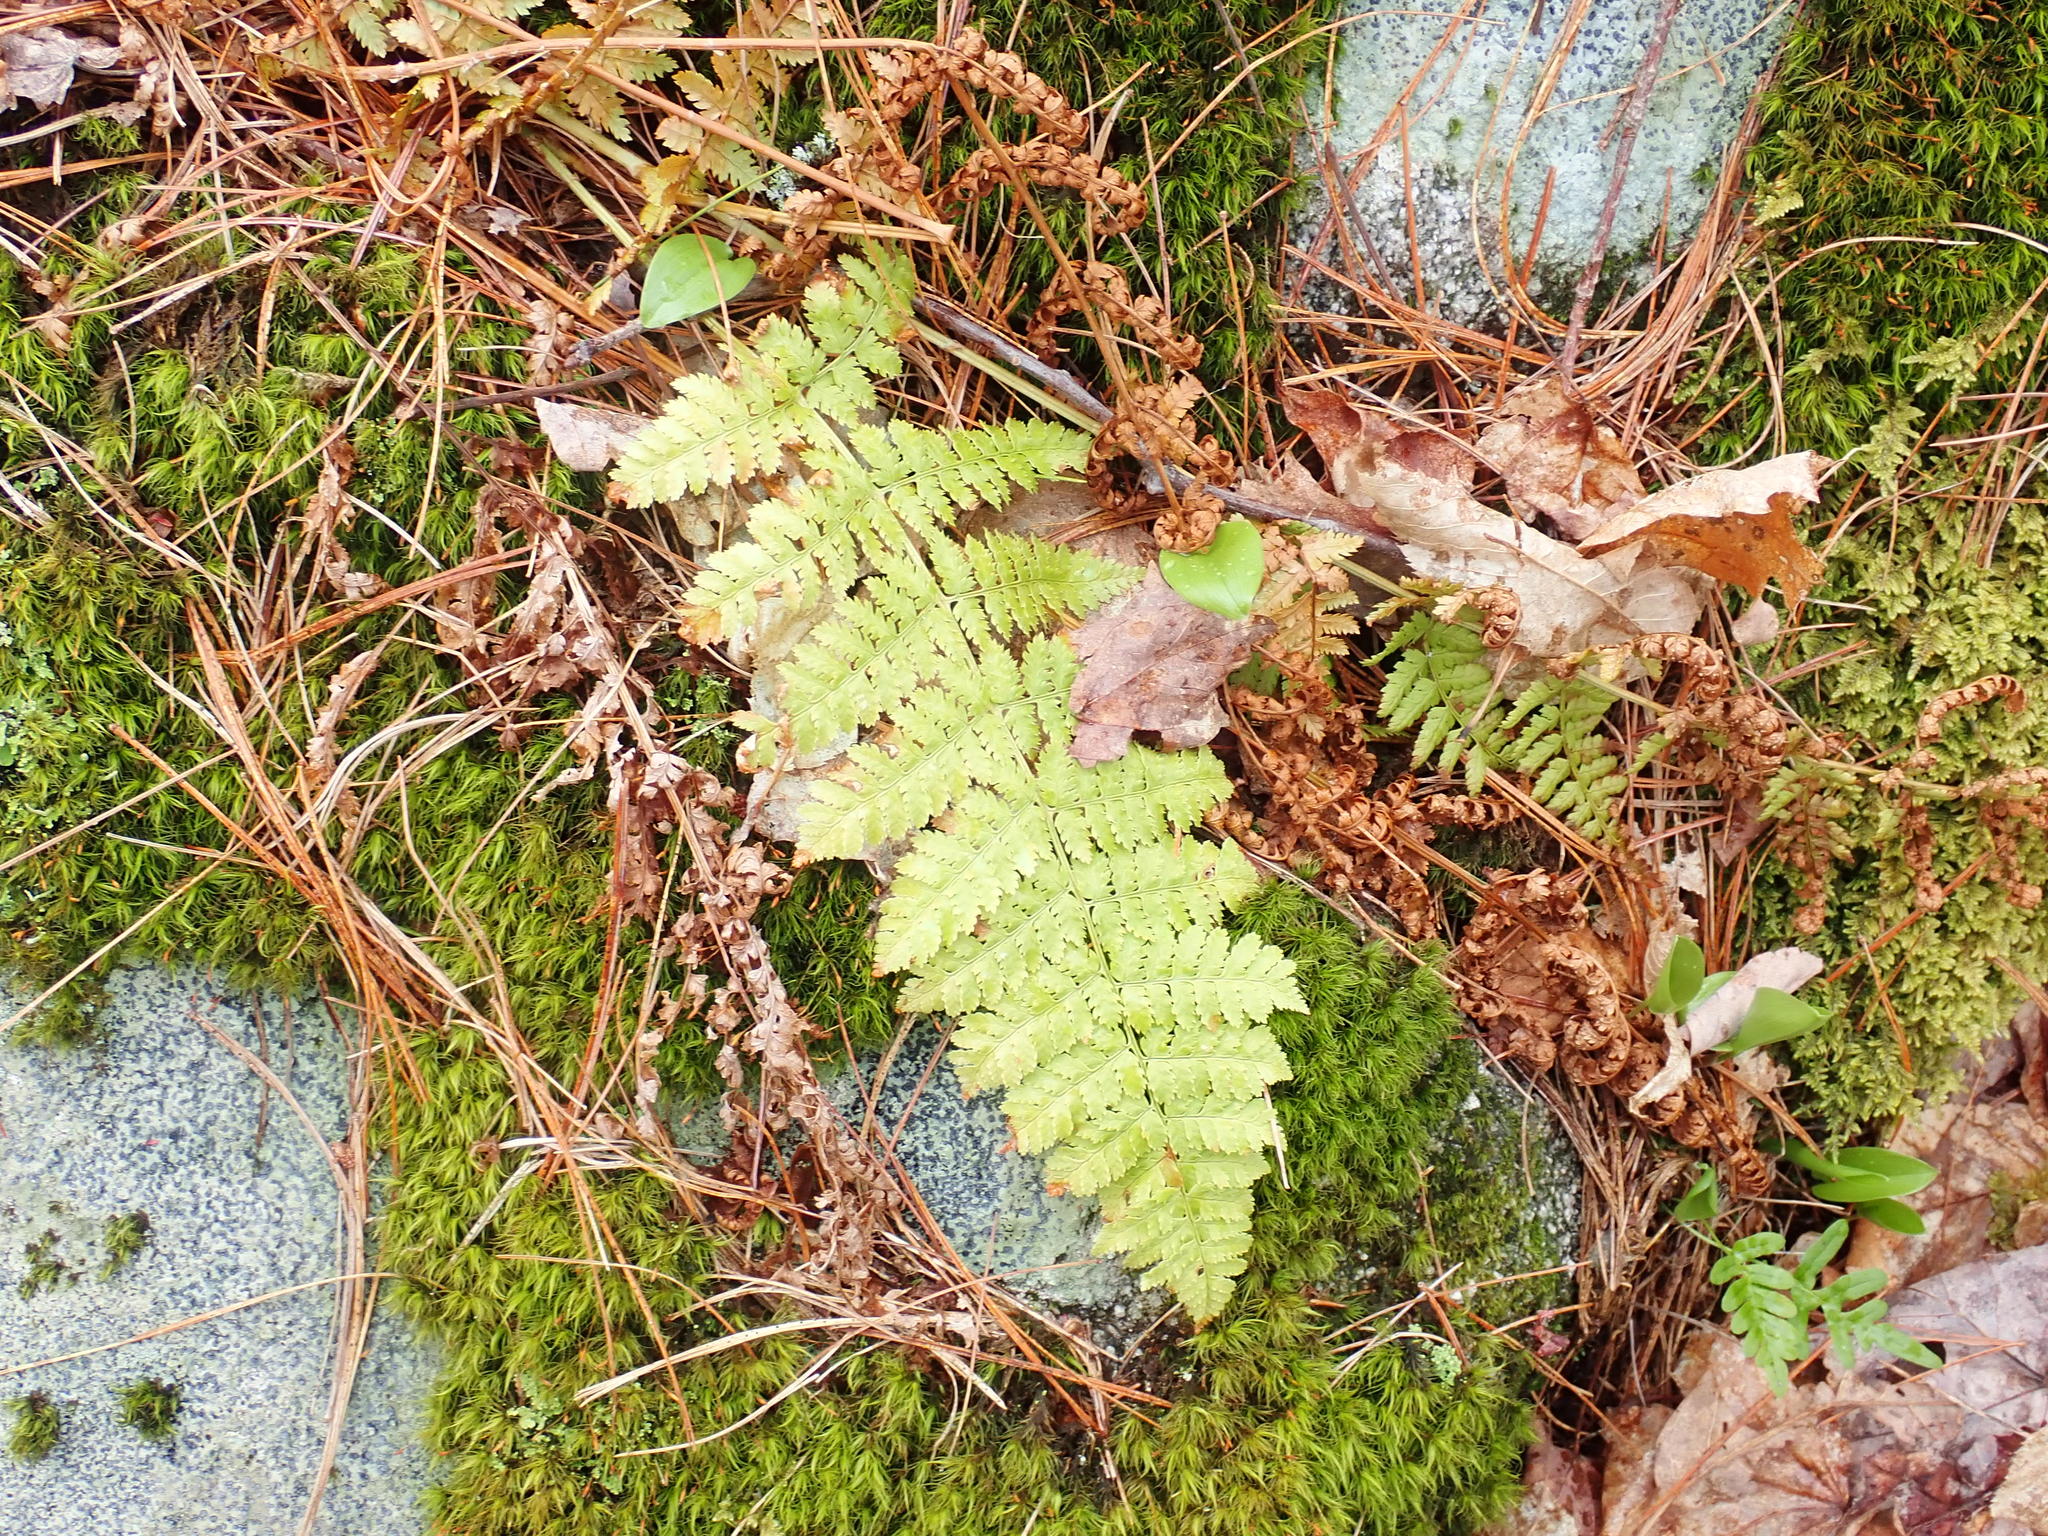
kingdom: Plantae
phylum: Tracheophyta
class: Polypodiopsida
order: Polypodiales
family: Dryopteridaceae
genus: Dryopteris
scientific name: Dryopteris intermedia
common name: Evergreen wood fern
